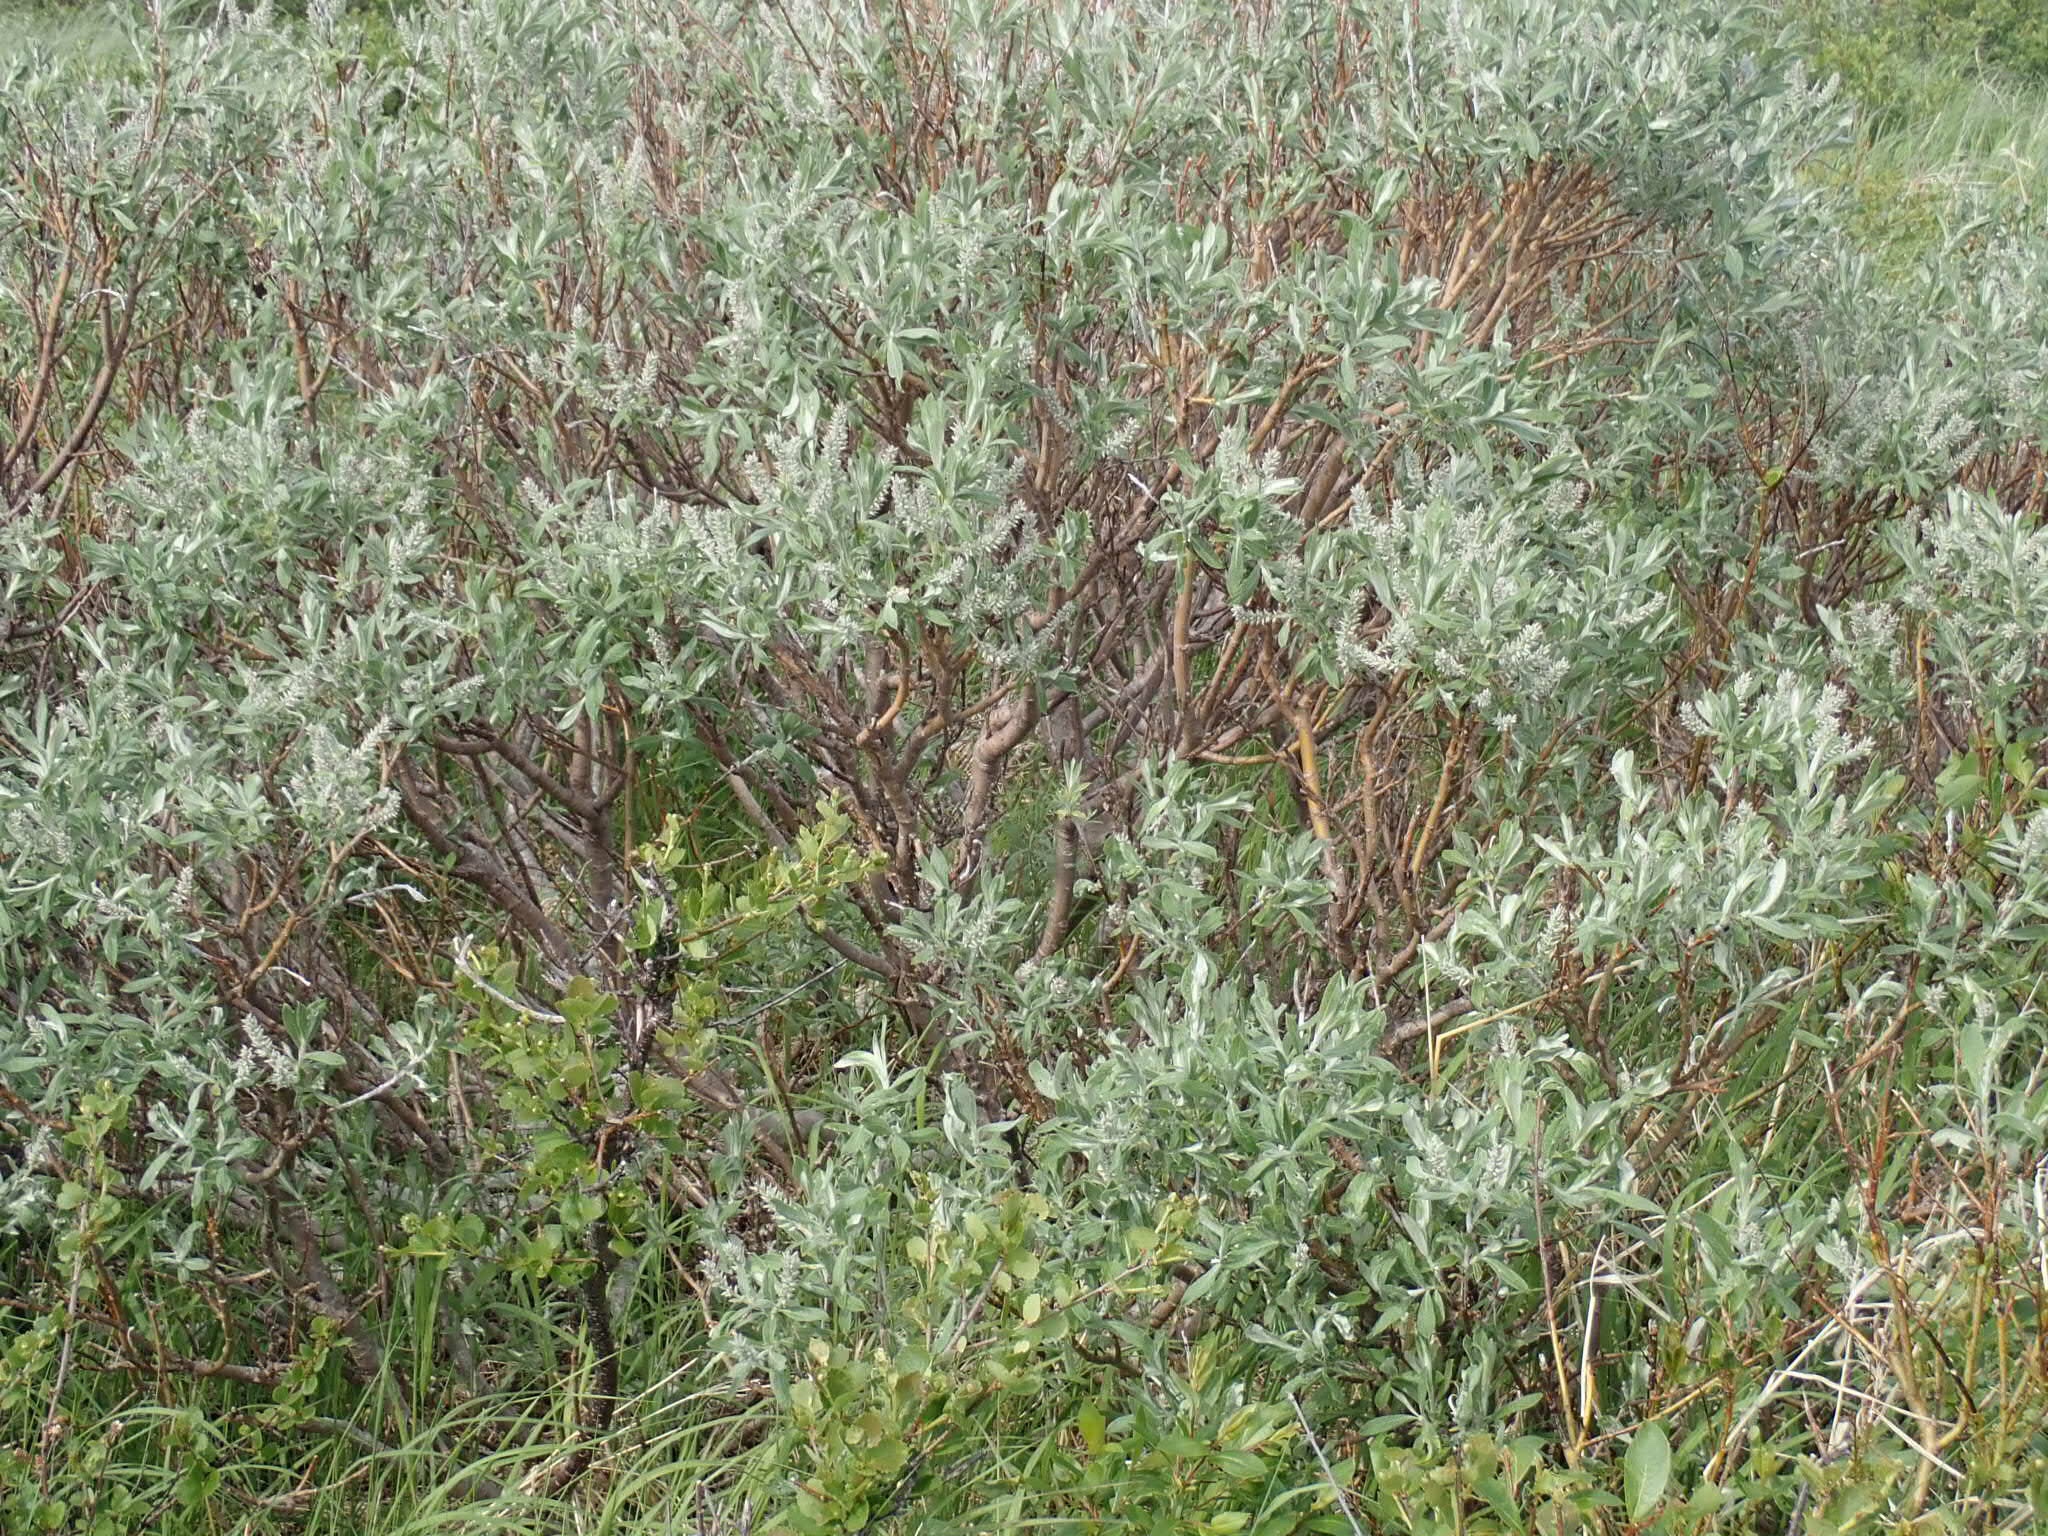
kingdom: Plantae
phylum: Tracheophyta
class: Magnoliopsida
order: Malpighiales
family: Salicaceae
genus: Salix
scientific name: Salix candida
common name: Hoary willow
